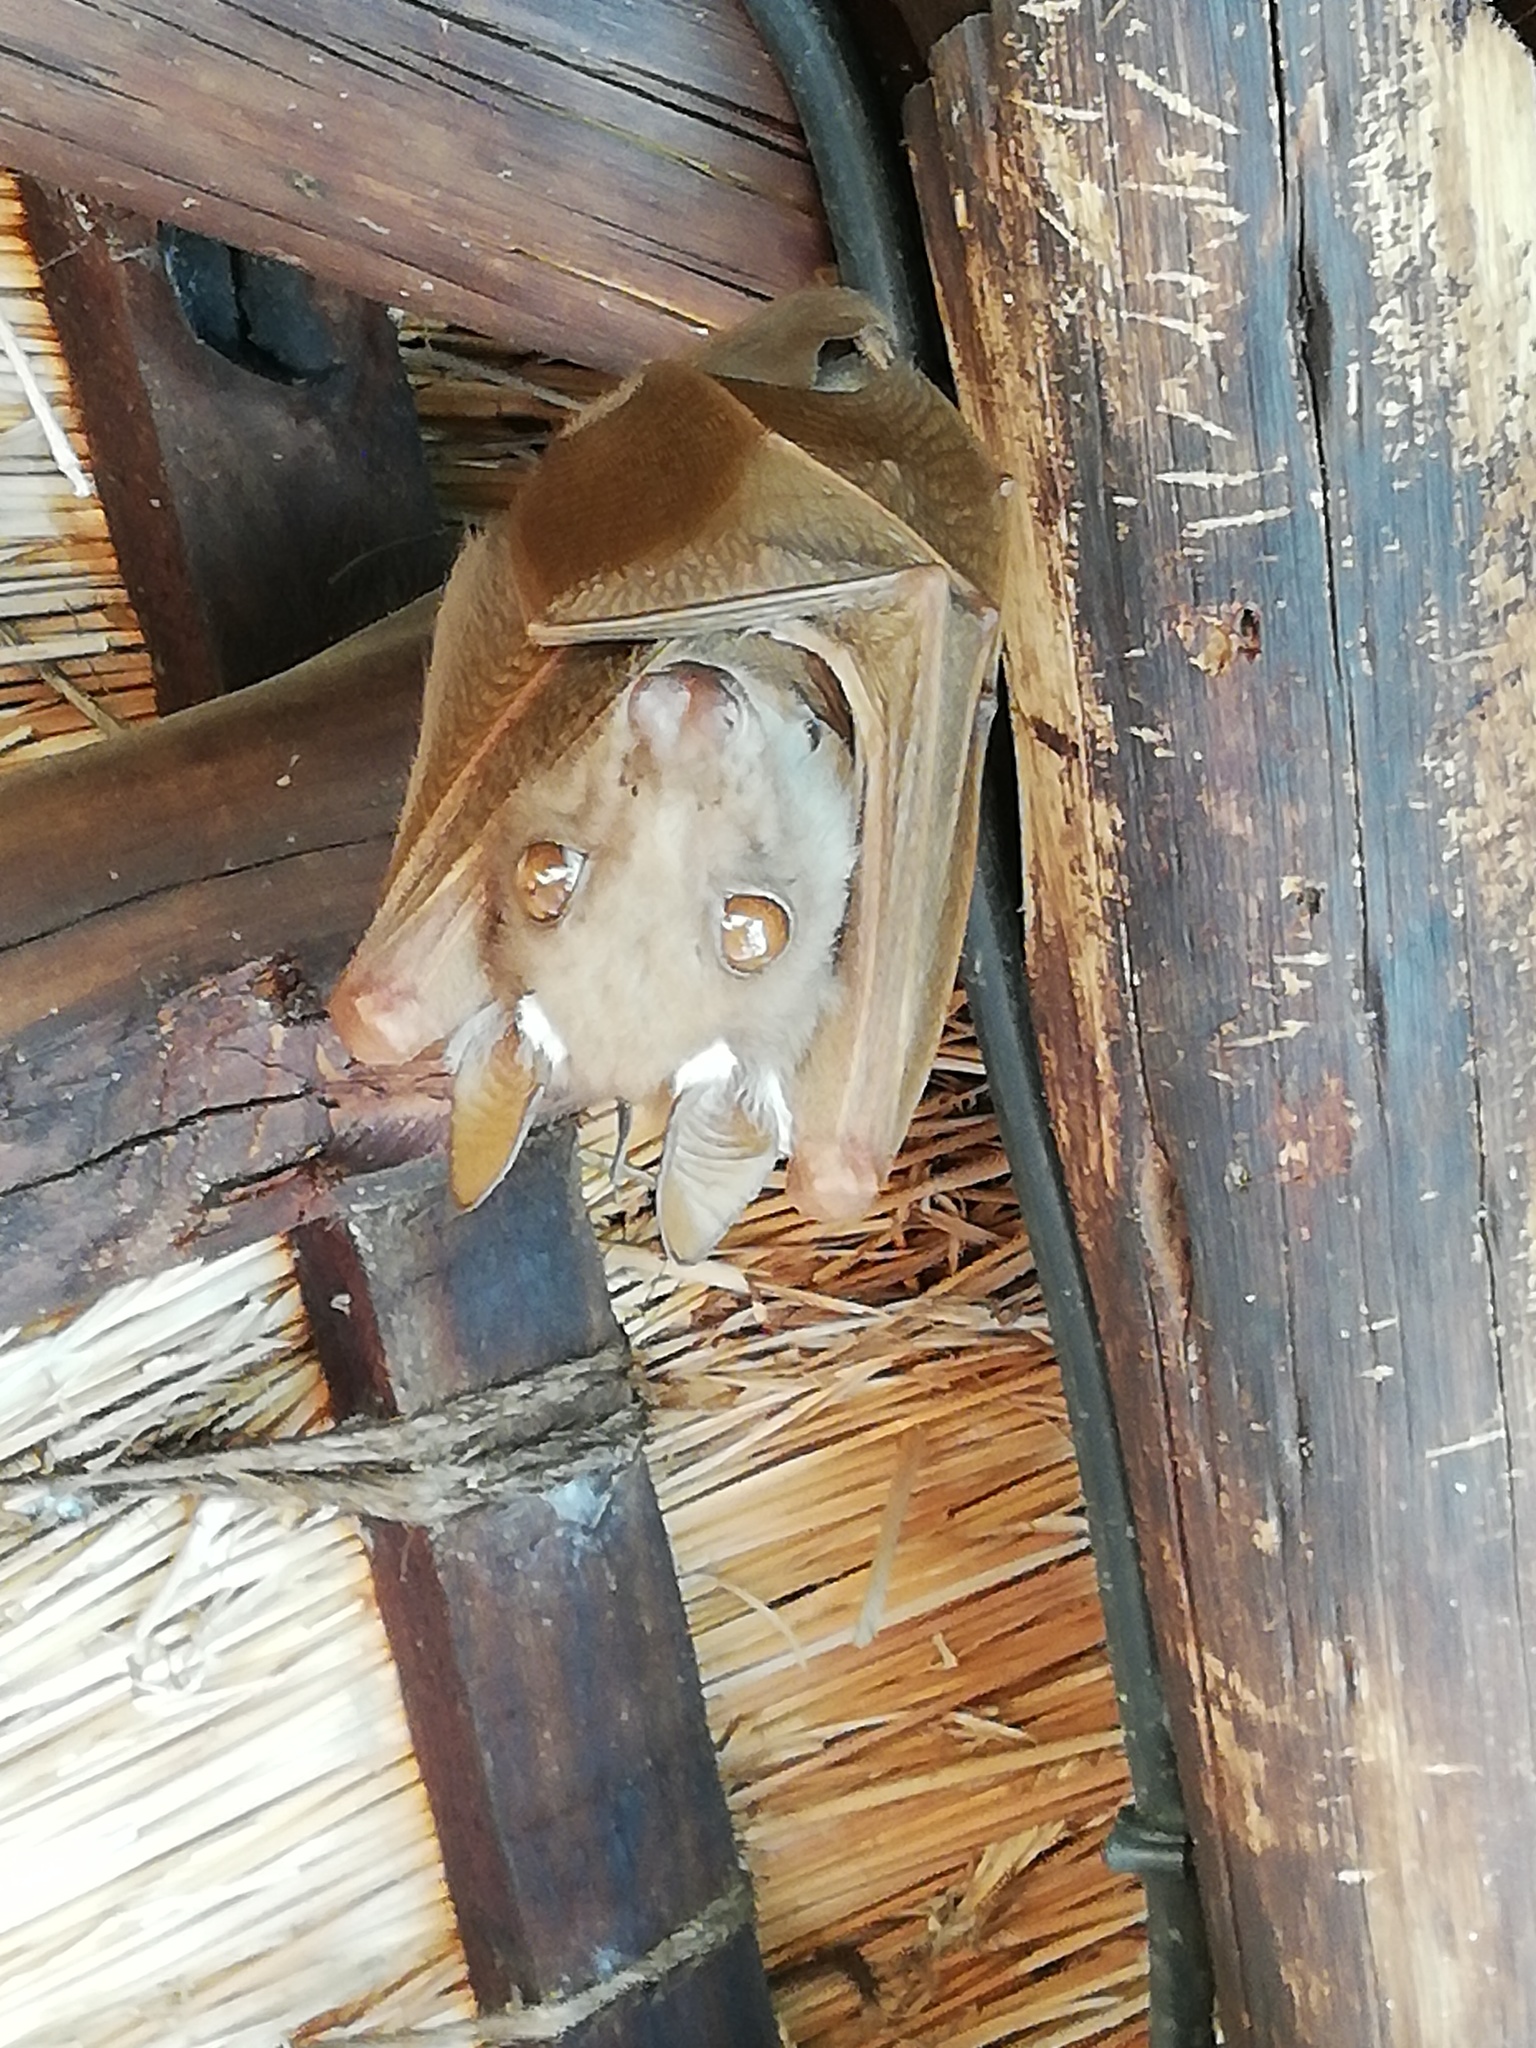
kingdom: Animalia
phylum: Chordata
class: Mammalia
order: Chiroptera
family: Pteropodidae
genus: Epomophorus
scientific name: Epomophorus wahlbergi
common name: Wahlberg's epauletted fruit bat
